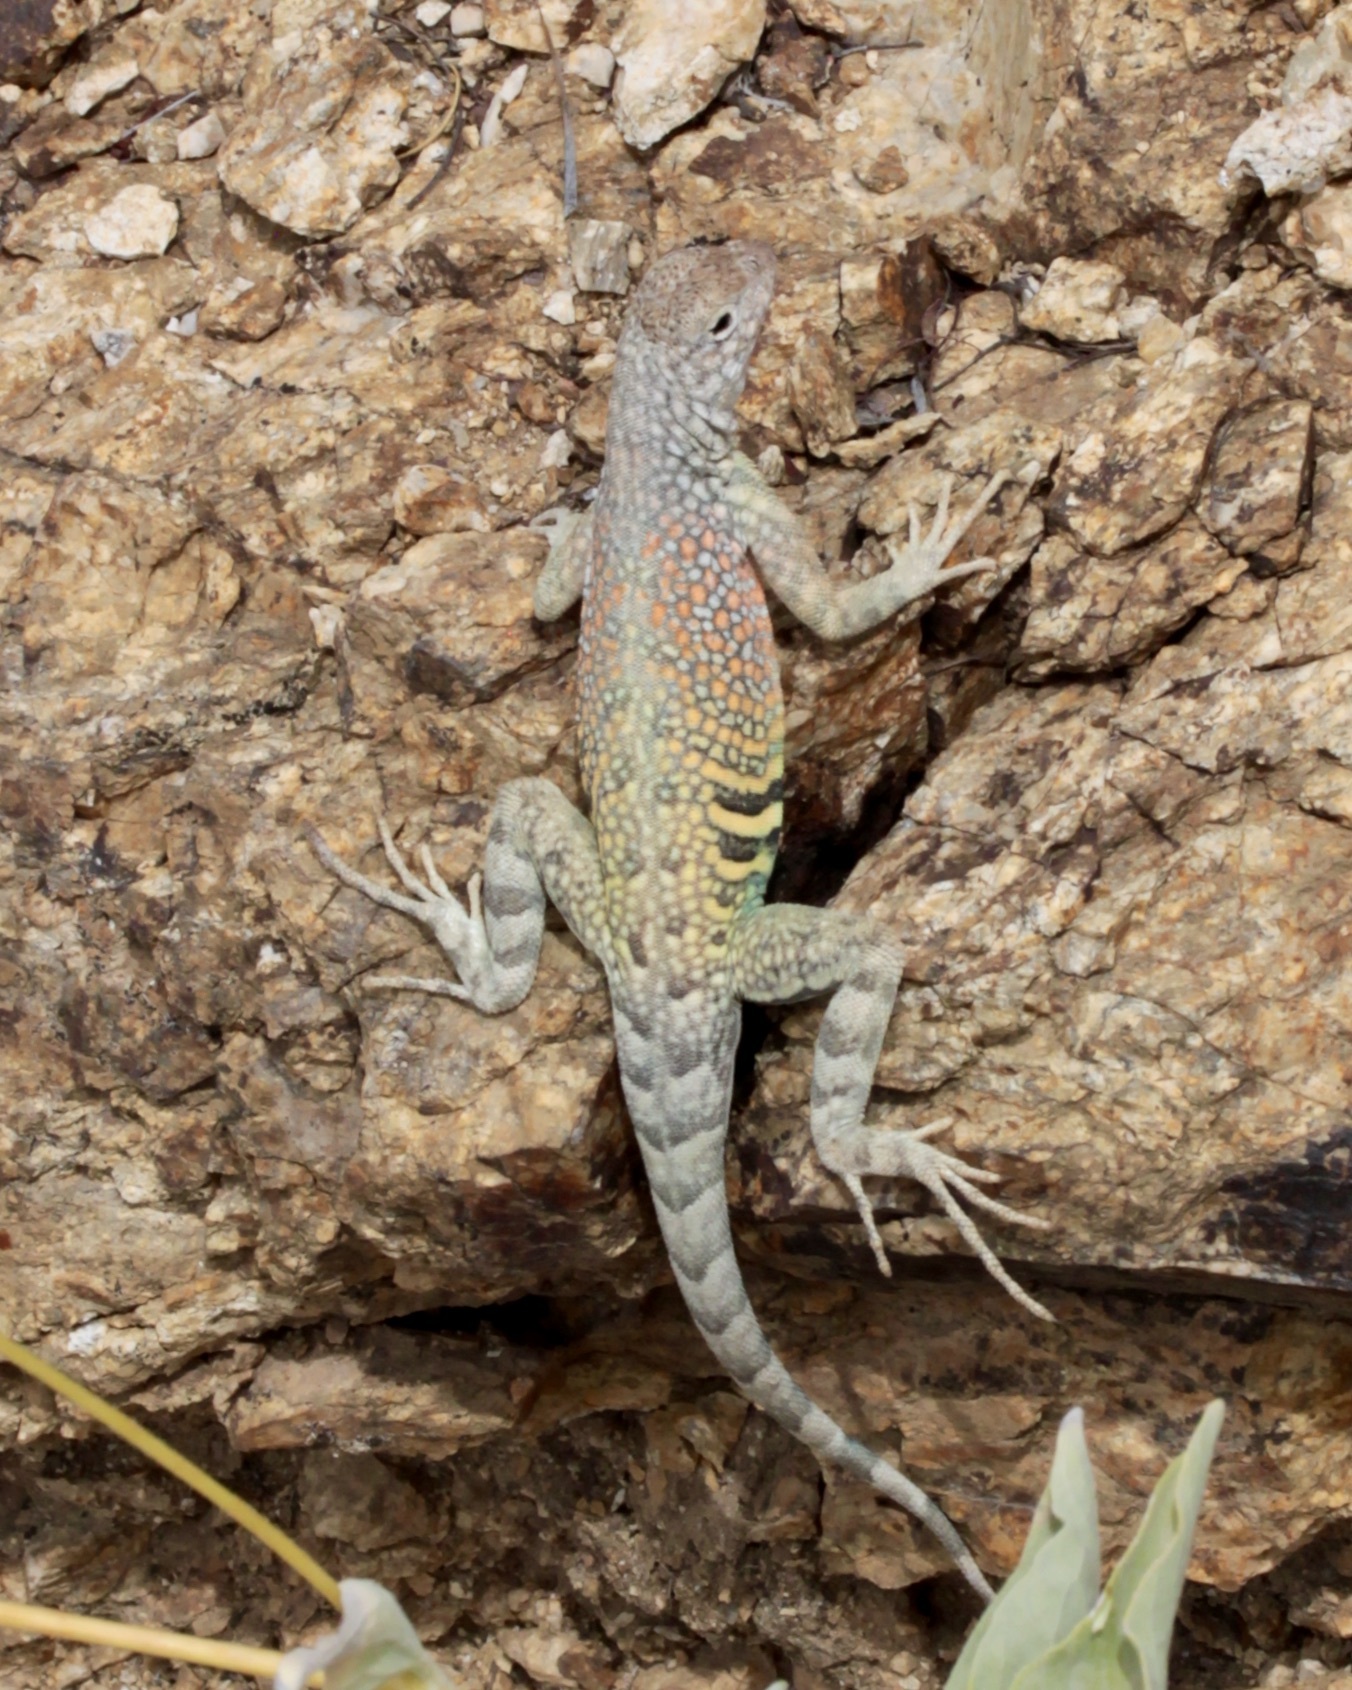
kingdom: Animalia
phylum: Chordata
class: Squamata
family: Phrynosomatidae
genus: Cophosaurus
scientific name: Cophosaurus texanus
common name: Greater earless lizard
